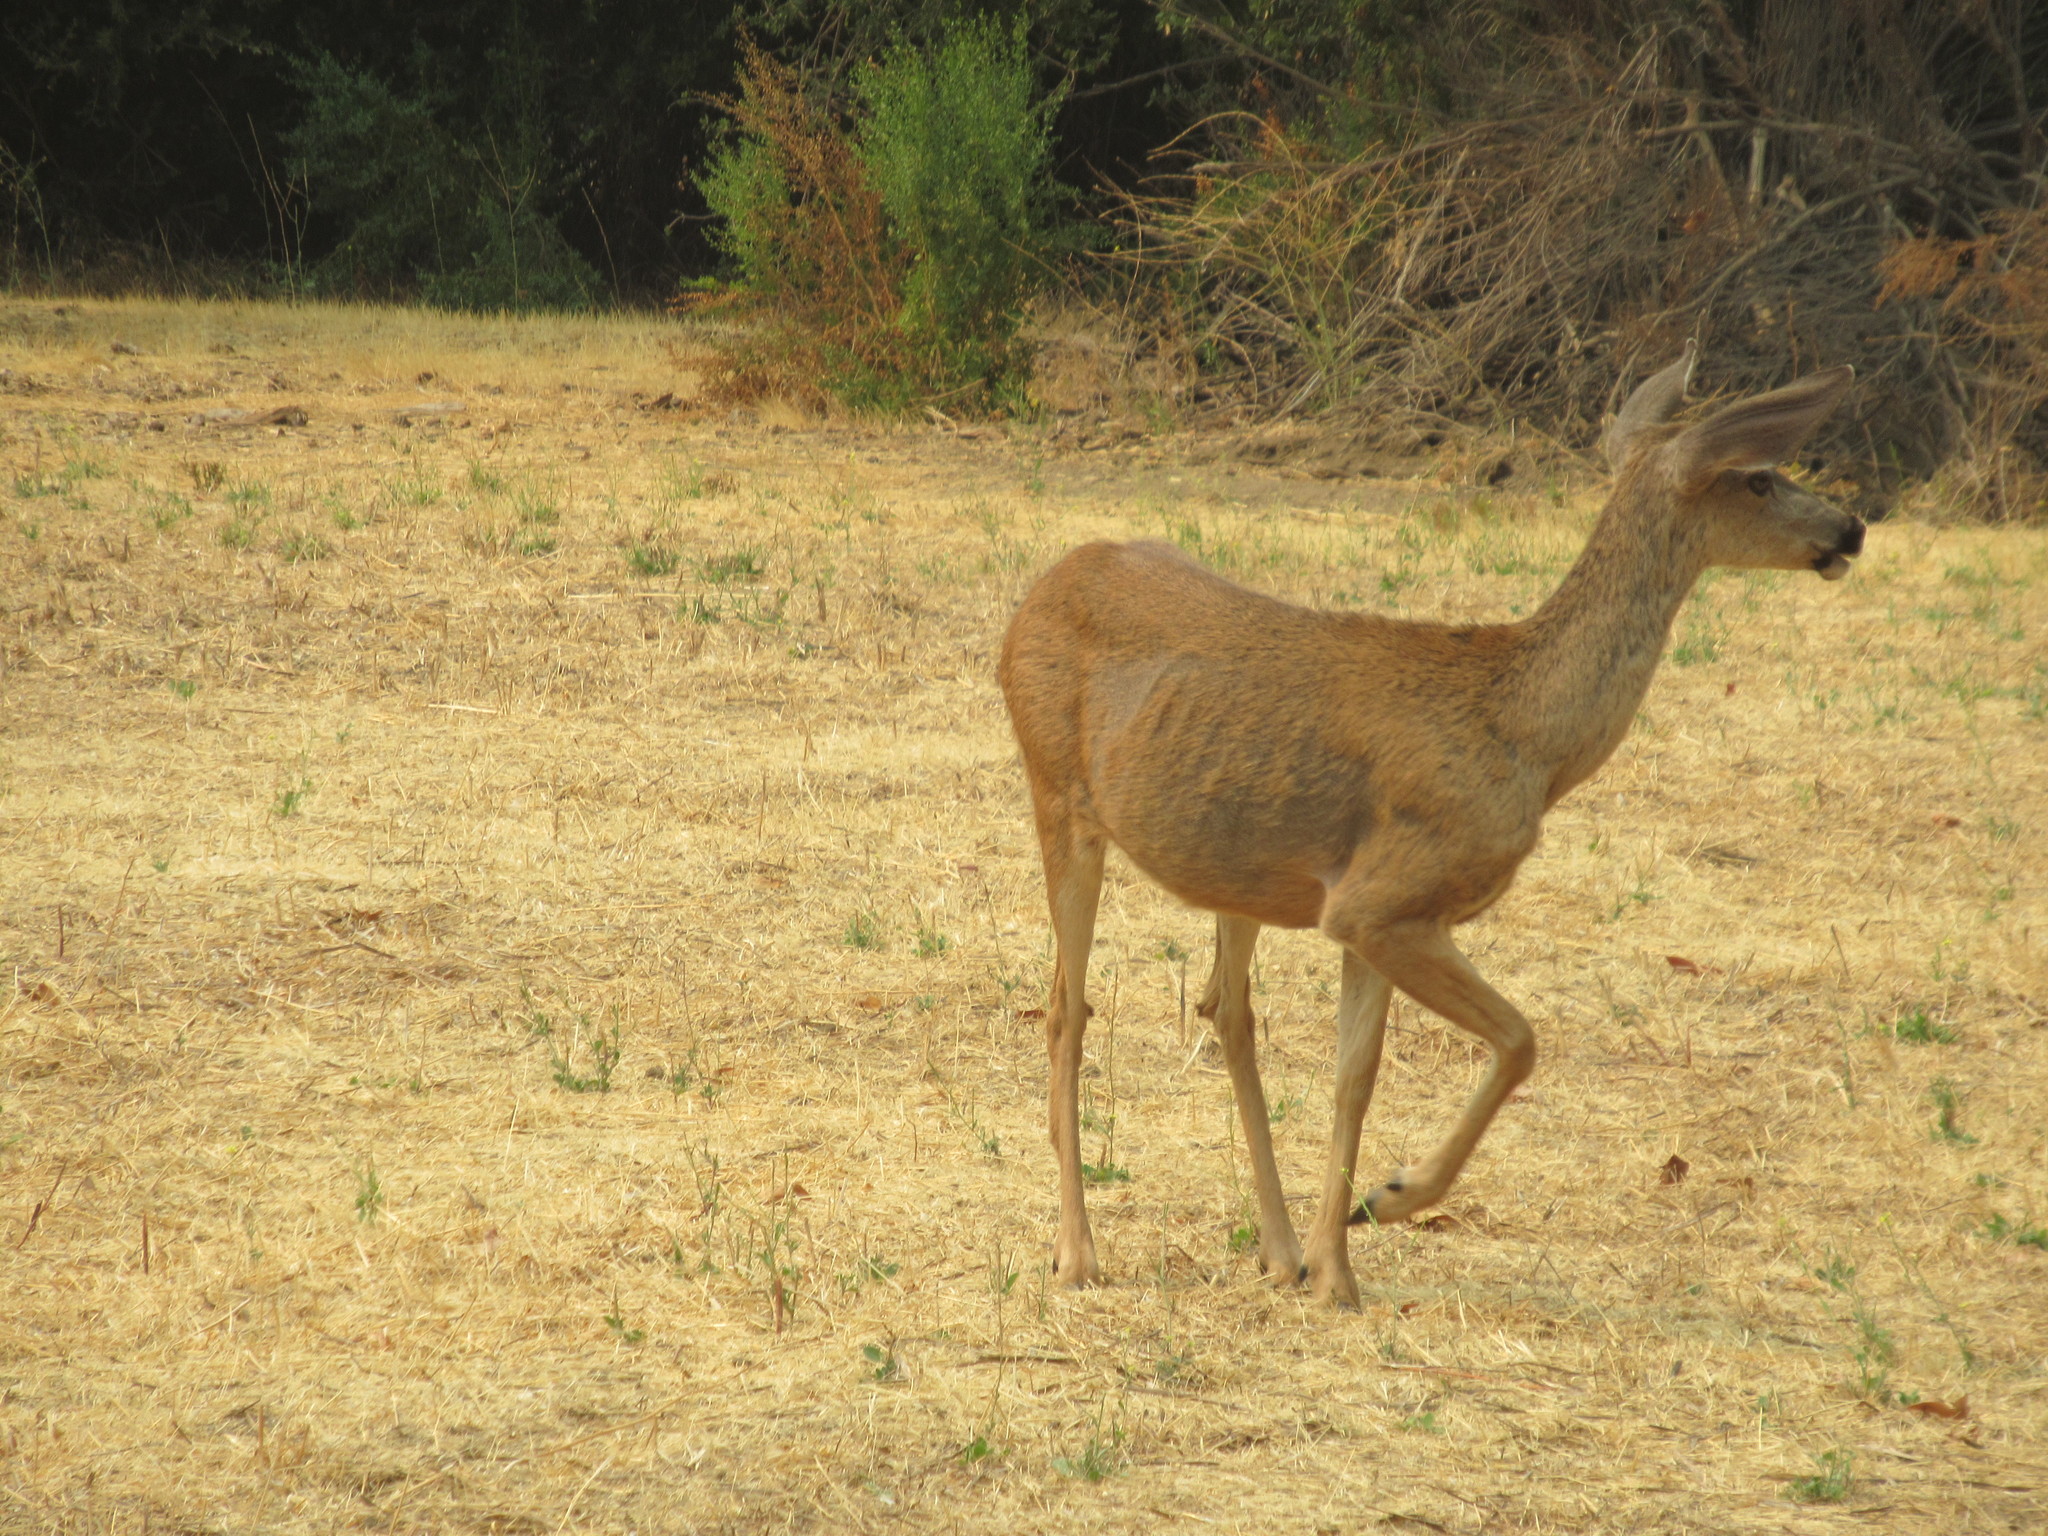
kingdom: Animalia
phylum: Chordata
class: Mammalia
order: Artiodactyla
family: Cervidae
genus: Odocoileus
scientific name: Odocoileus hemionus
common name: Mule deer
